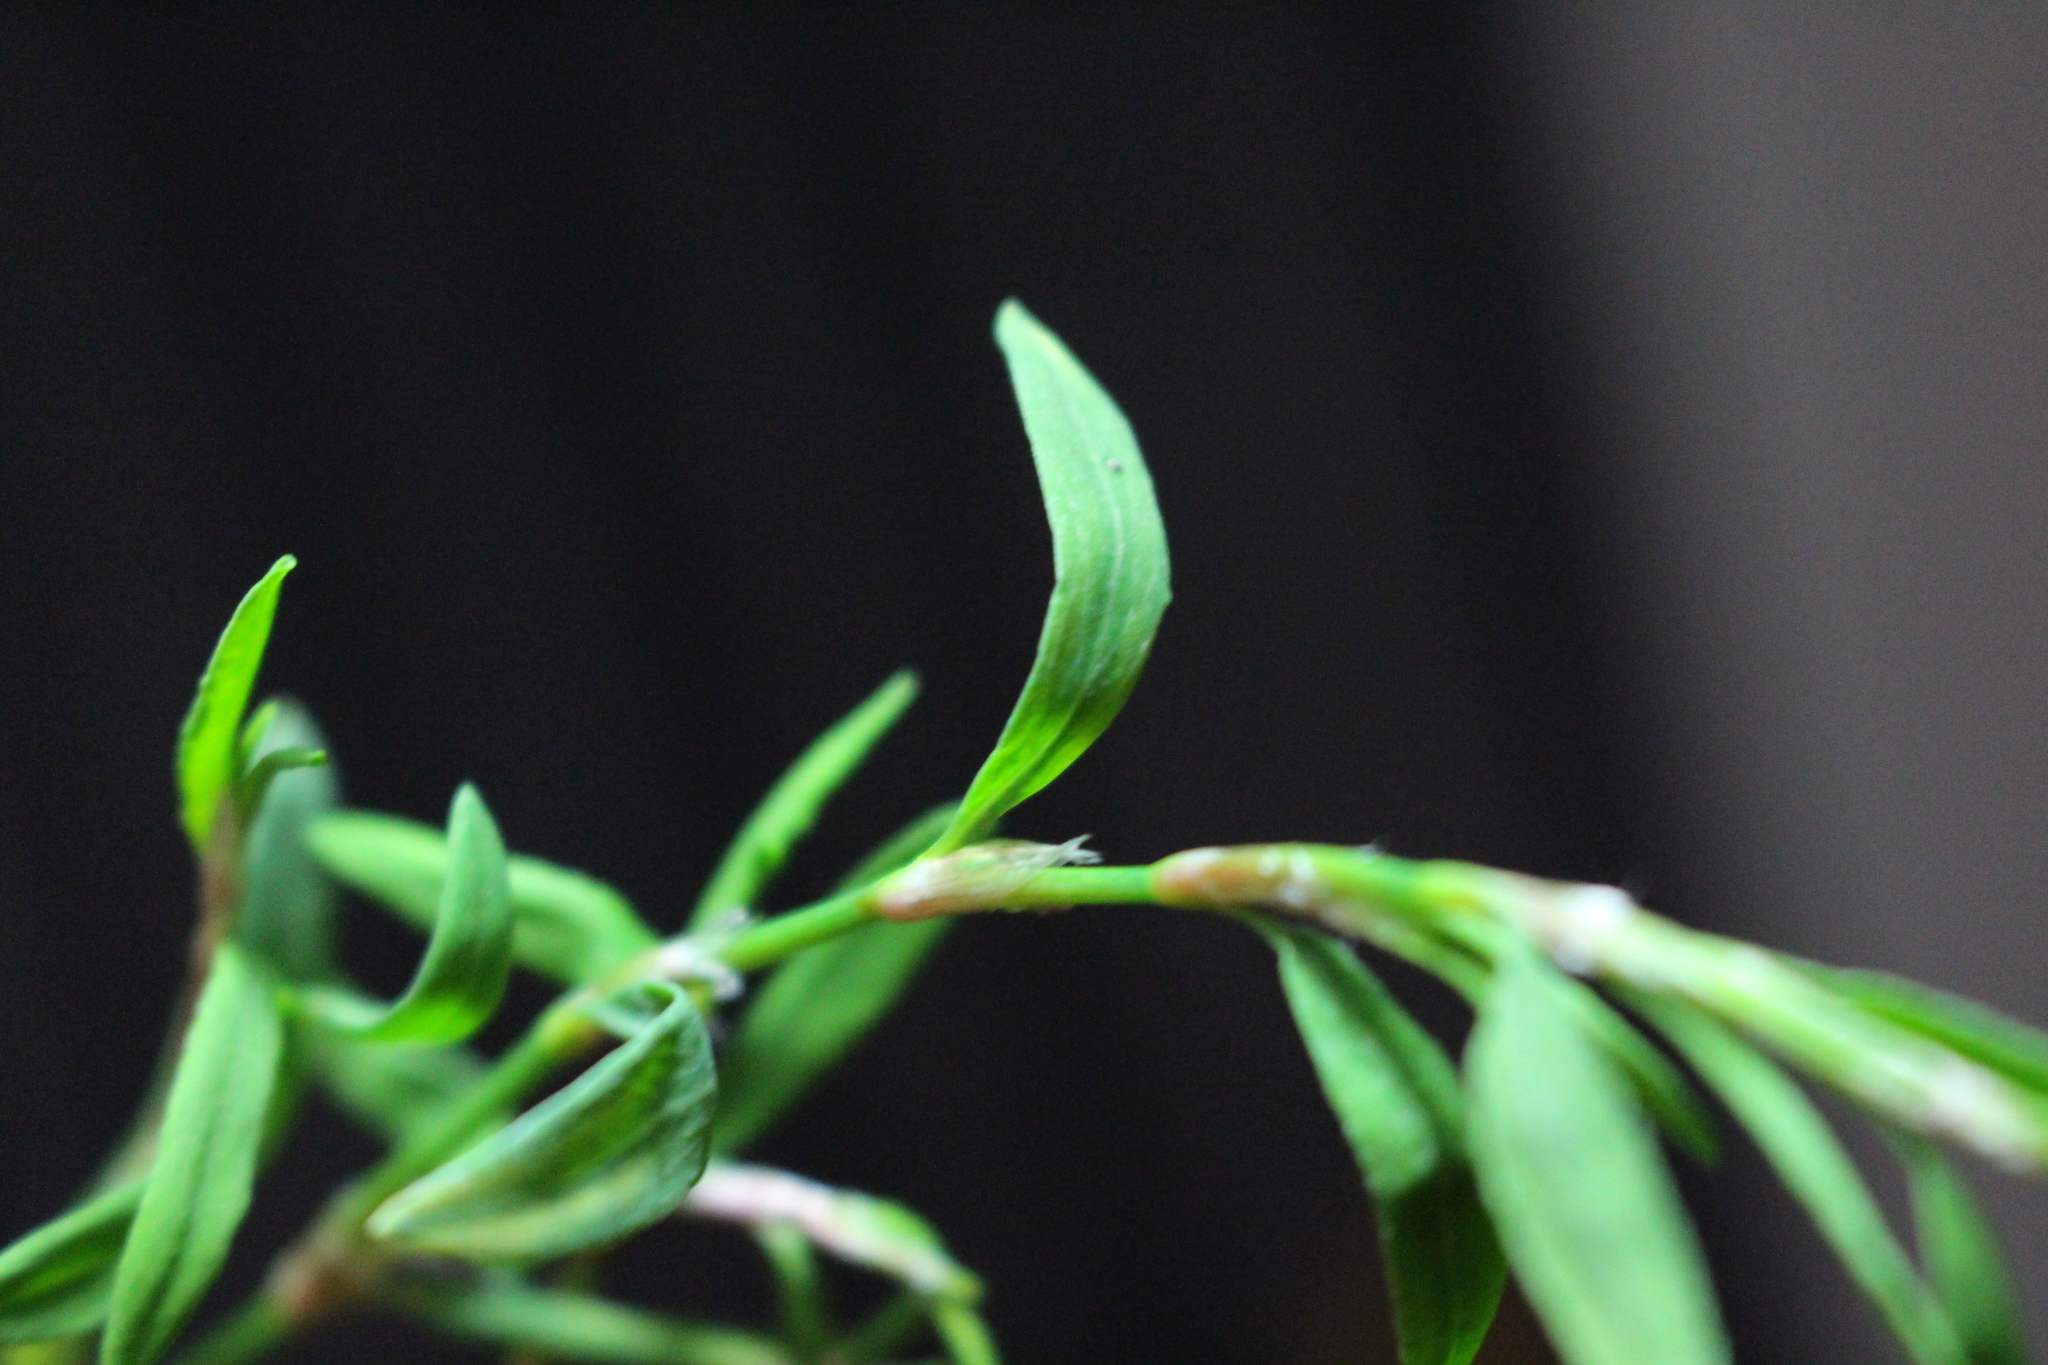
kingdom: Plantae
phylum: Tracheophyta
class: Magnoliopsida
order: Caryophyllales
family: Polygonaceae
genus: Polygonum
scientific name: Polygonum aviculare
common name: Prostrate knotweed
